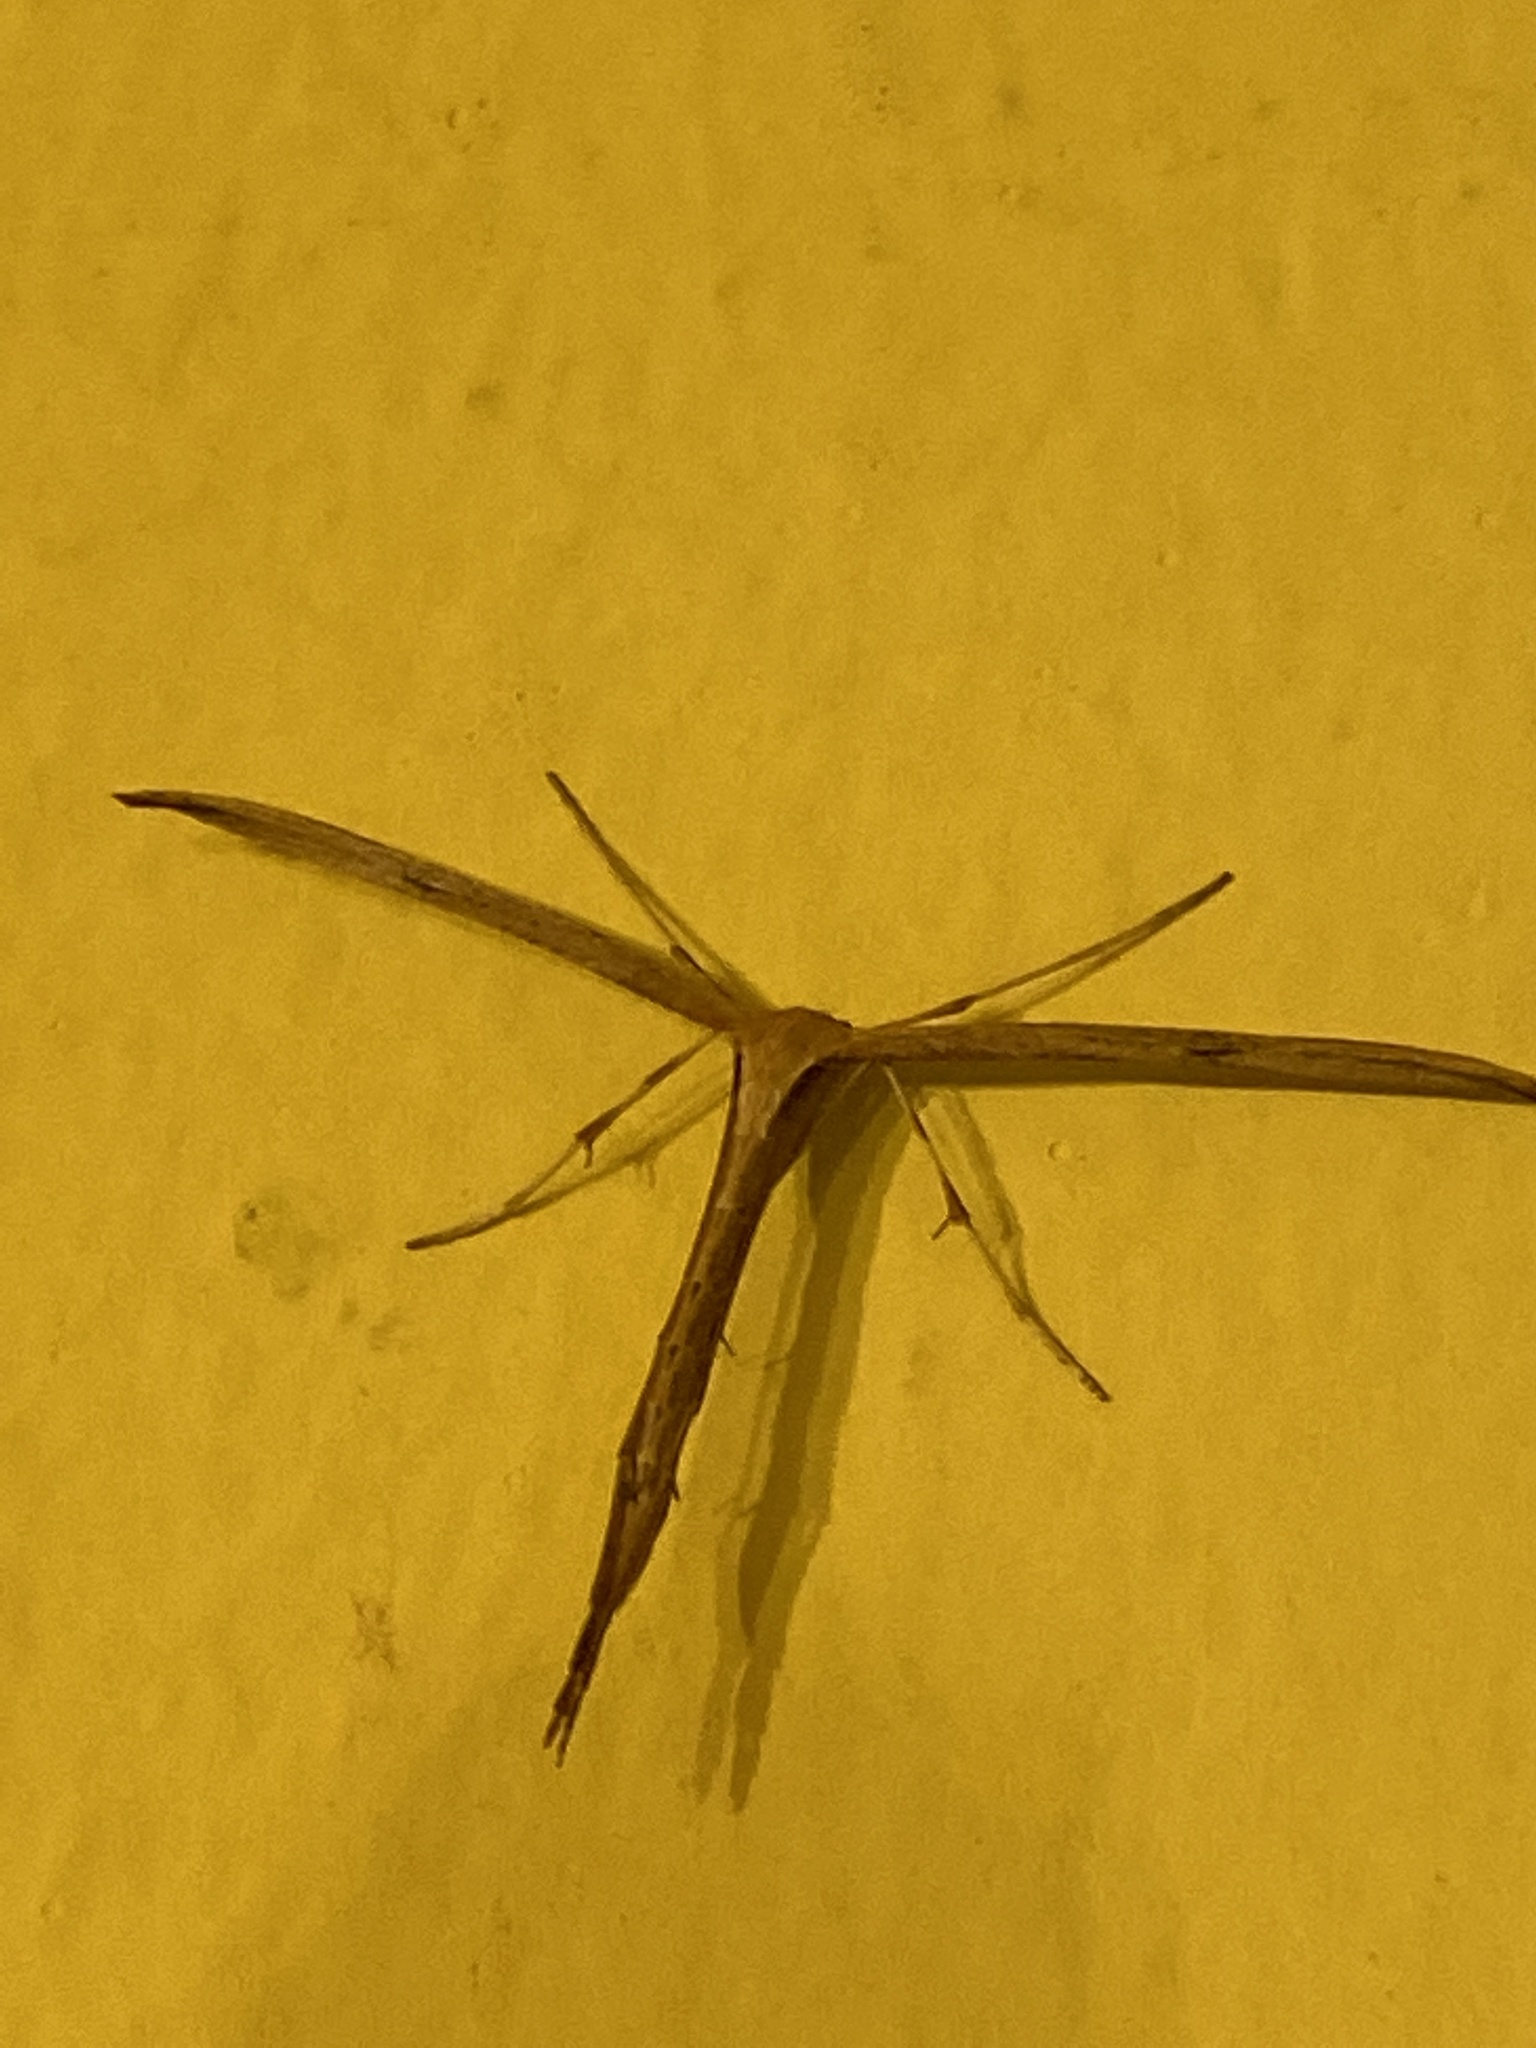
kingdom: Animalia
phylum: Arthropoda
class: Insecta
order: Lepidoptera
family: Pterophoridae
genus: Emmelina
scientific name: Emmelina monodactyla
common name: Common plume
